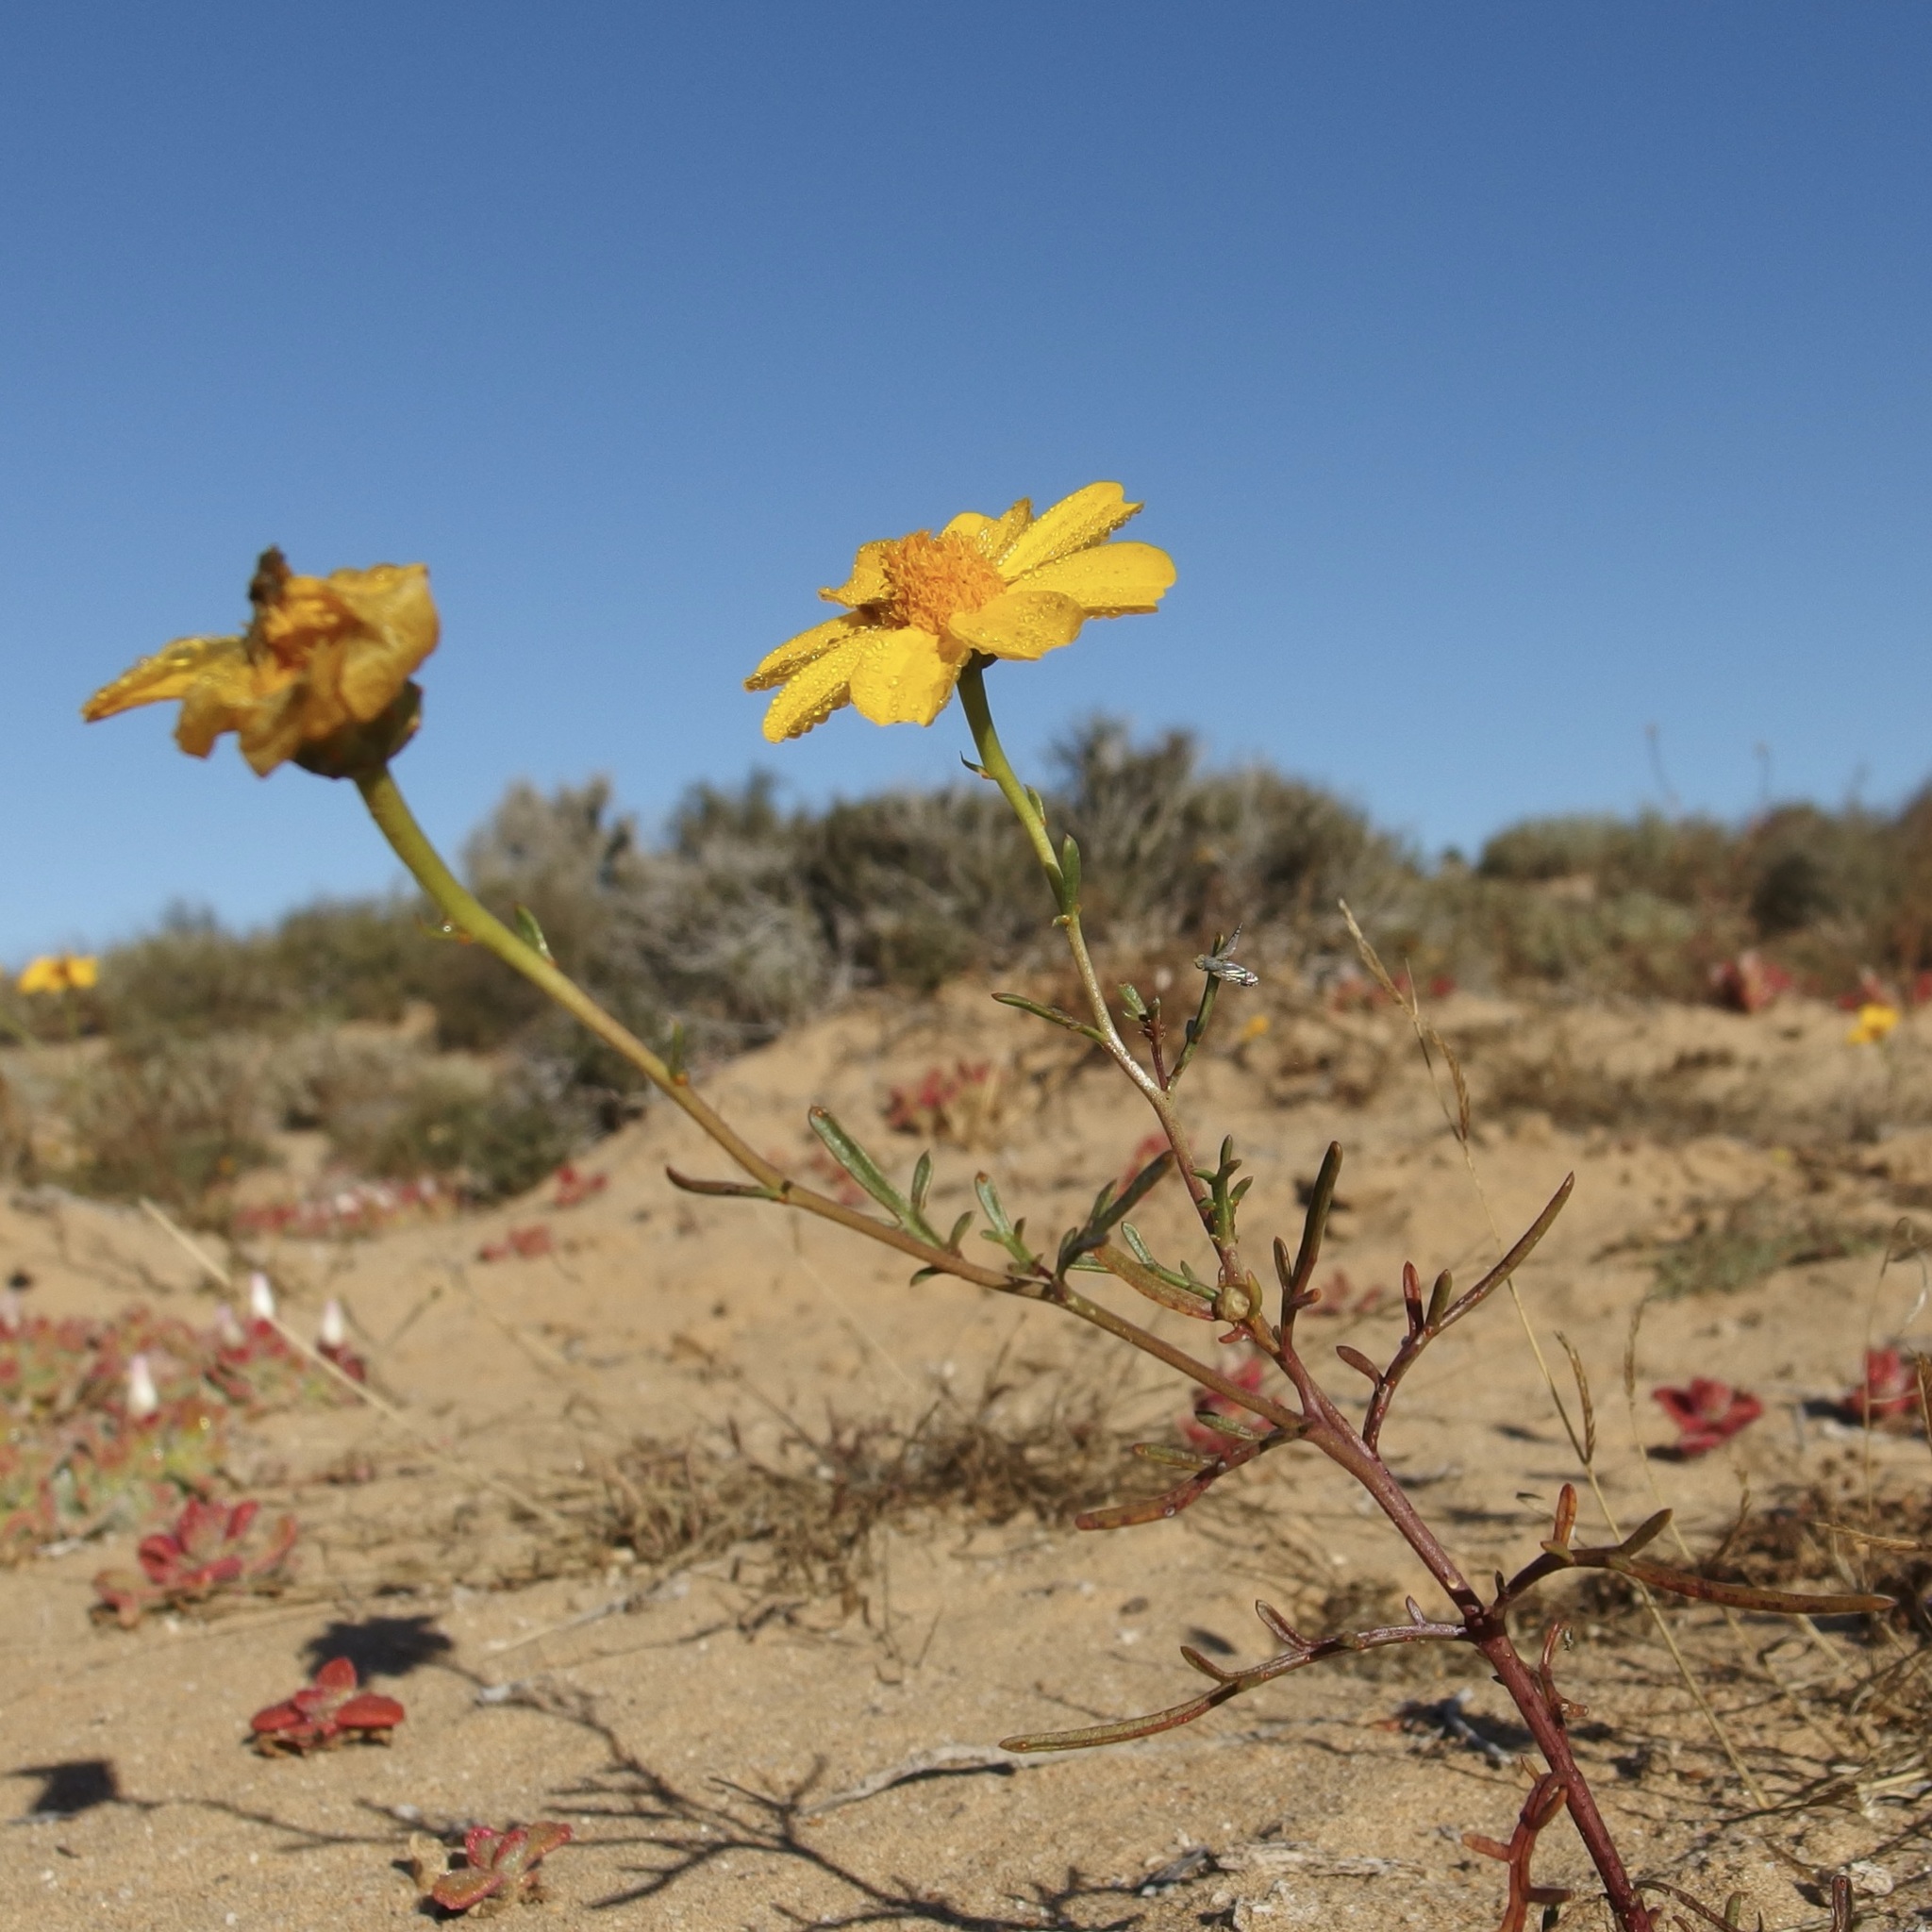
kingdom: Plantae
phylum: Tracheophyta
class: Magnoliopsida
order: Asterales
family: Asteraceae
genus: Boeberastrum
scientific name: Boeberastrum anthemidifolium
